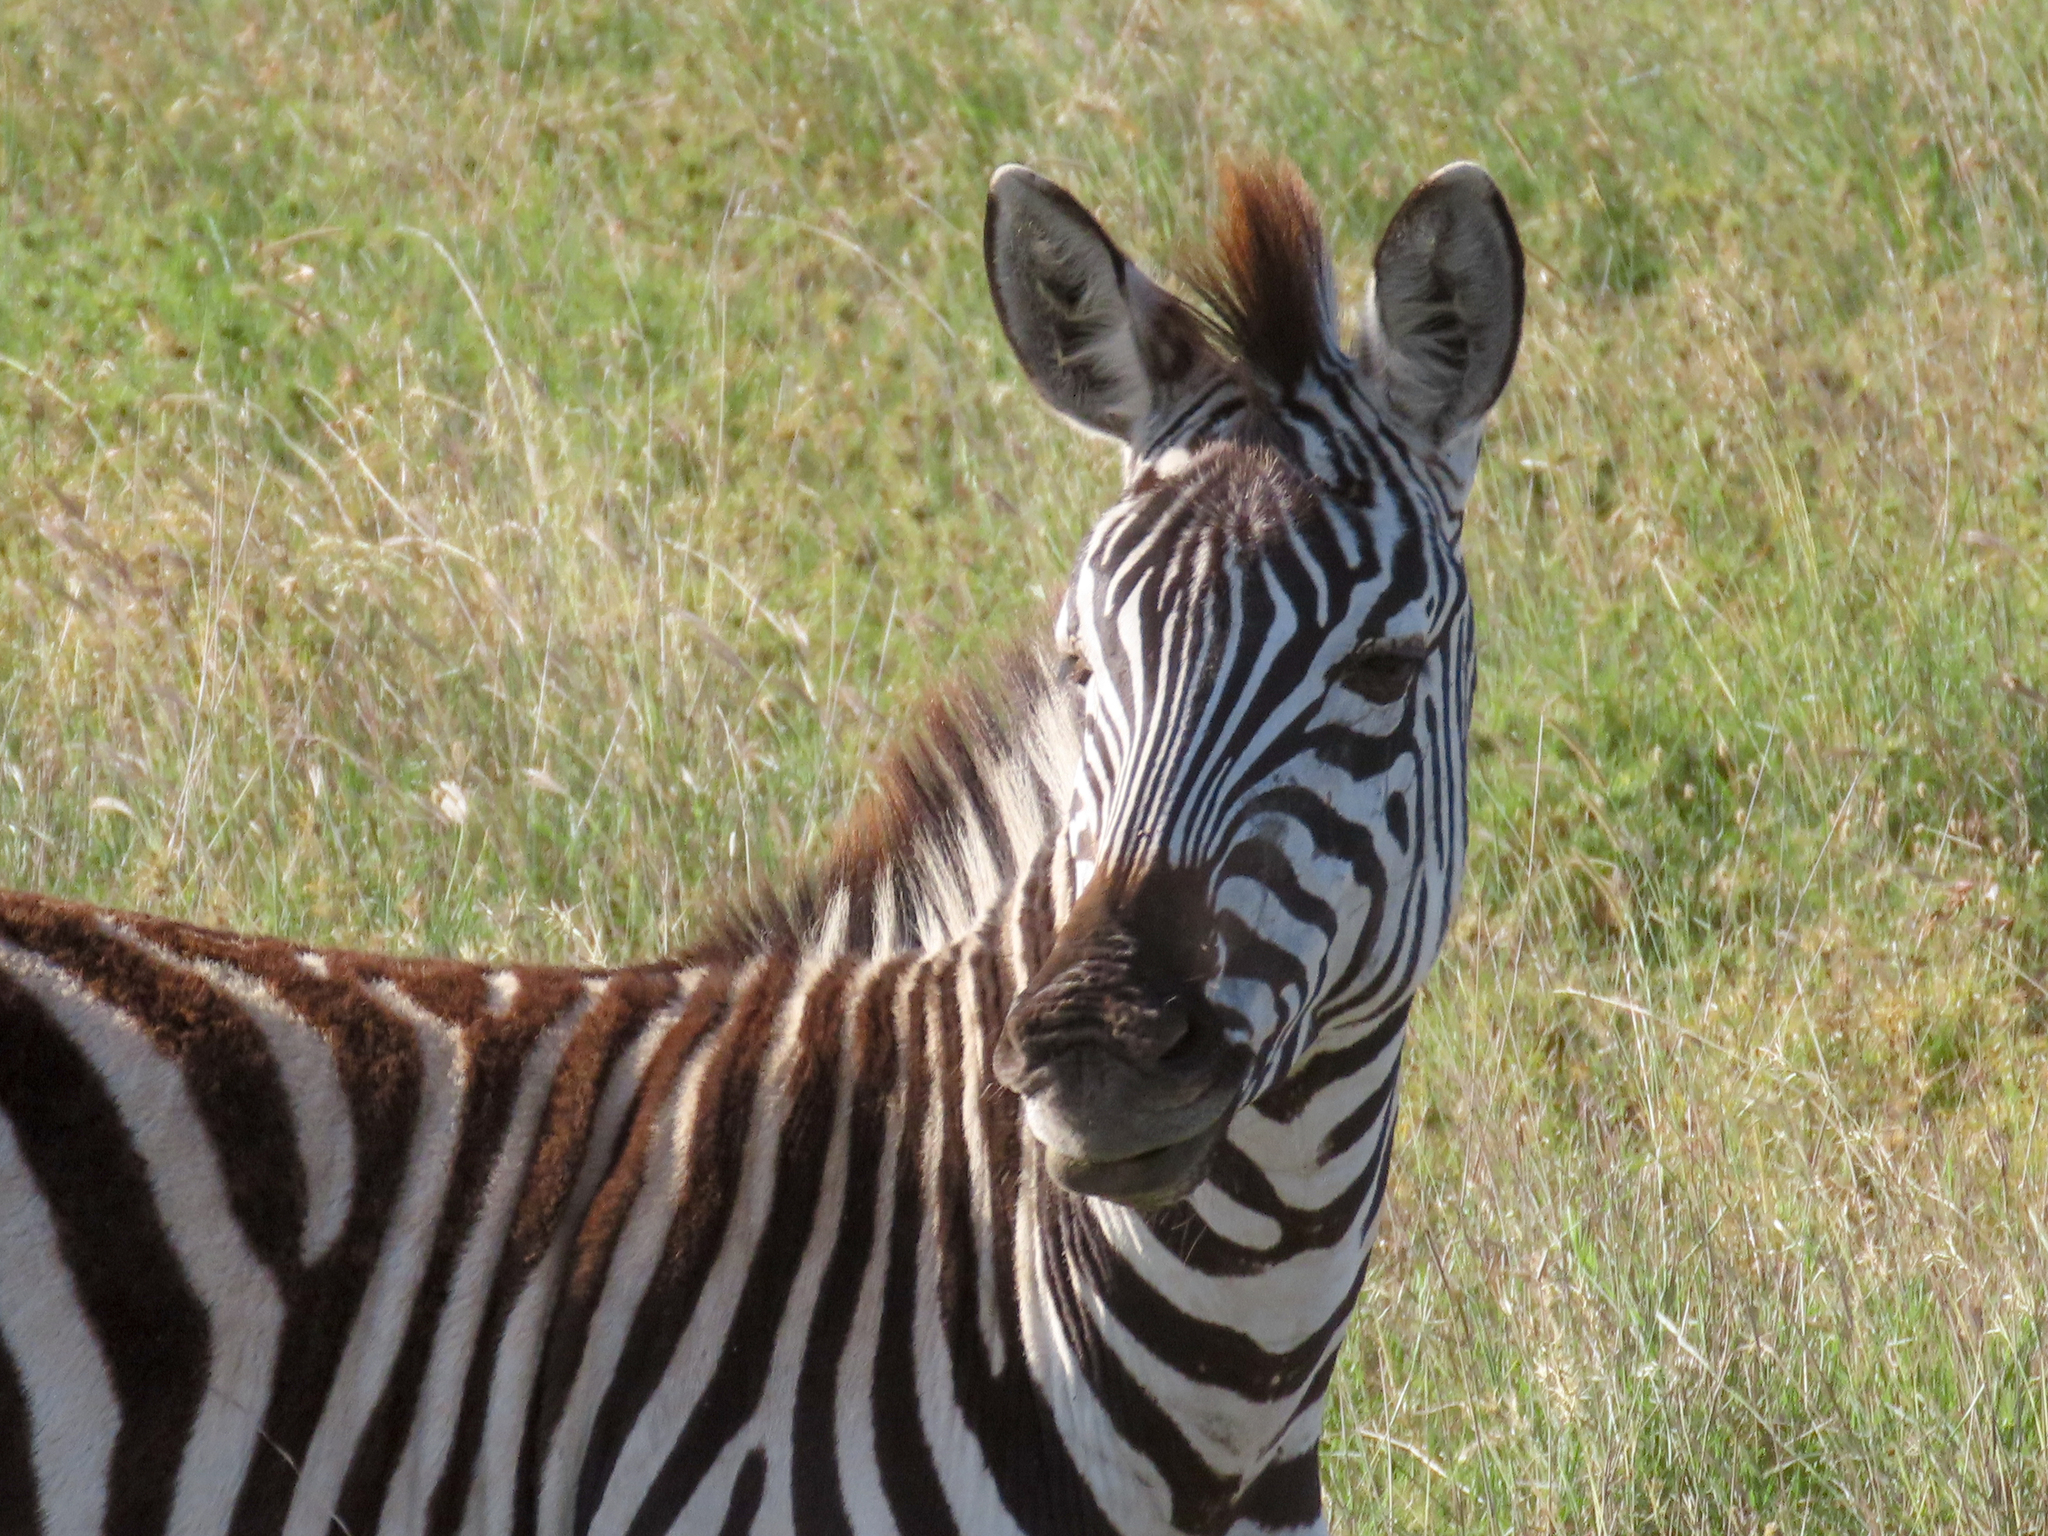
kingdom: Animalia
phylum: Chordata
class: Mammalia
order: Perissodactyla
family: Equidae
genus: Equus
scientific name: Equus quagga
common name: Plains zebra
